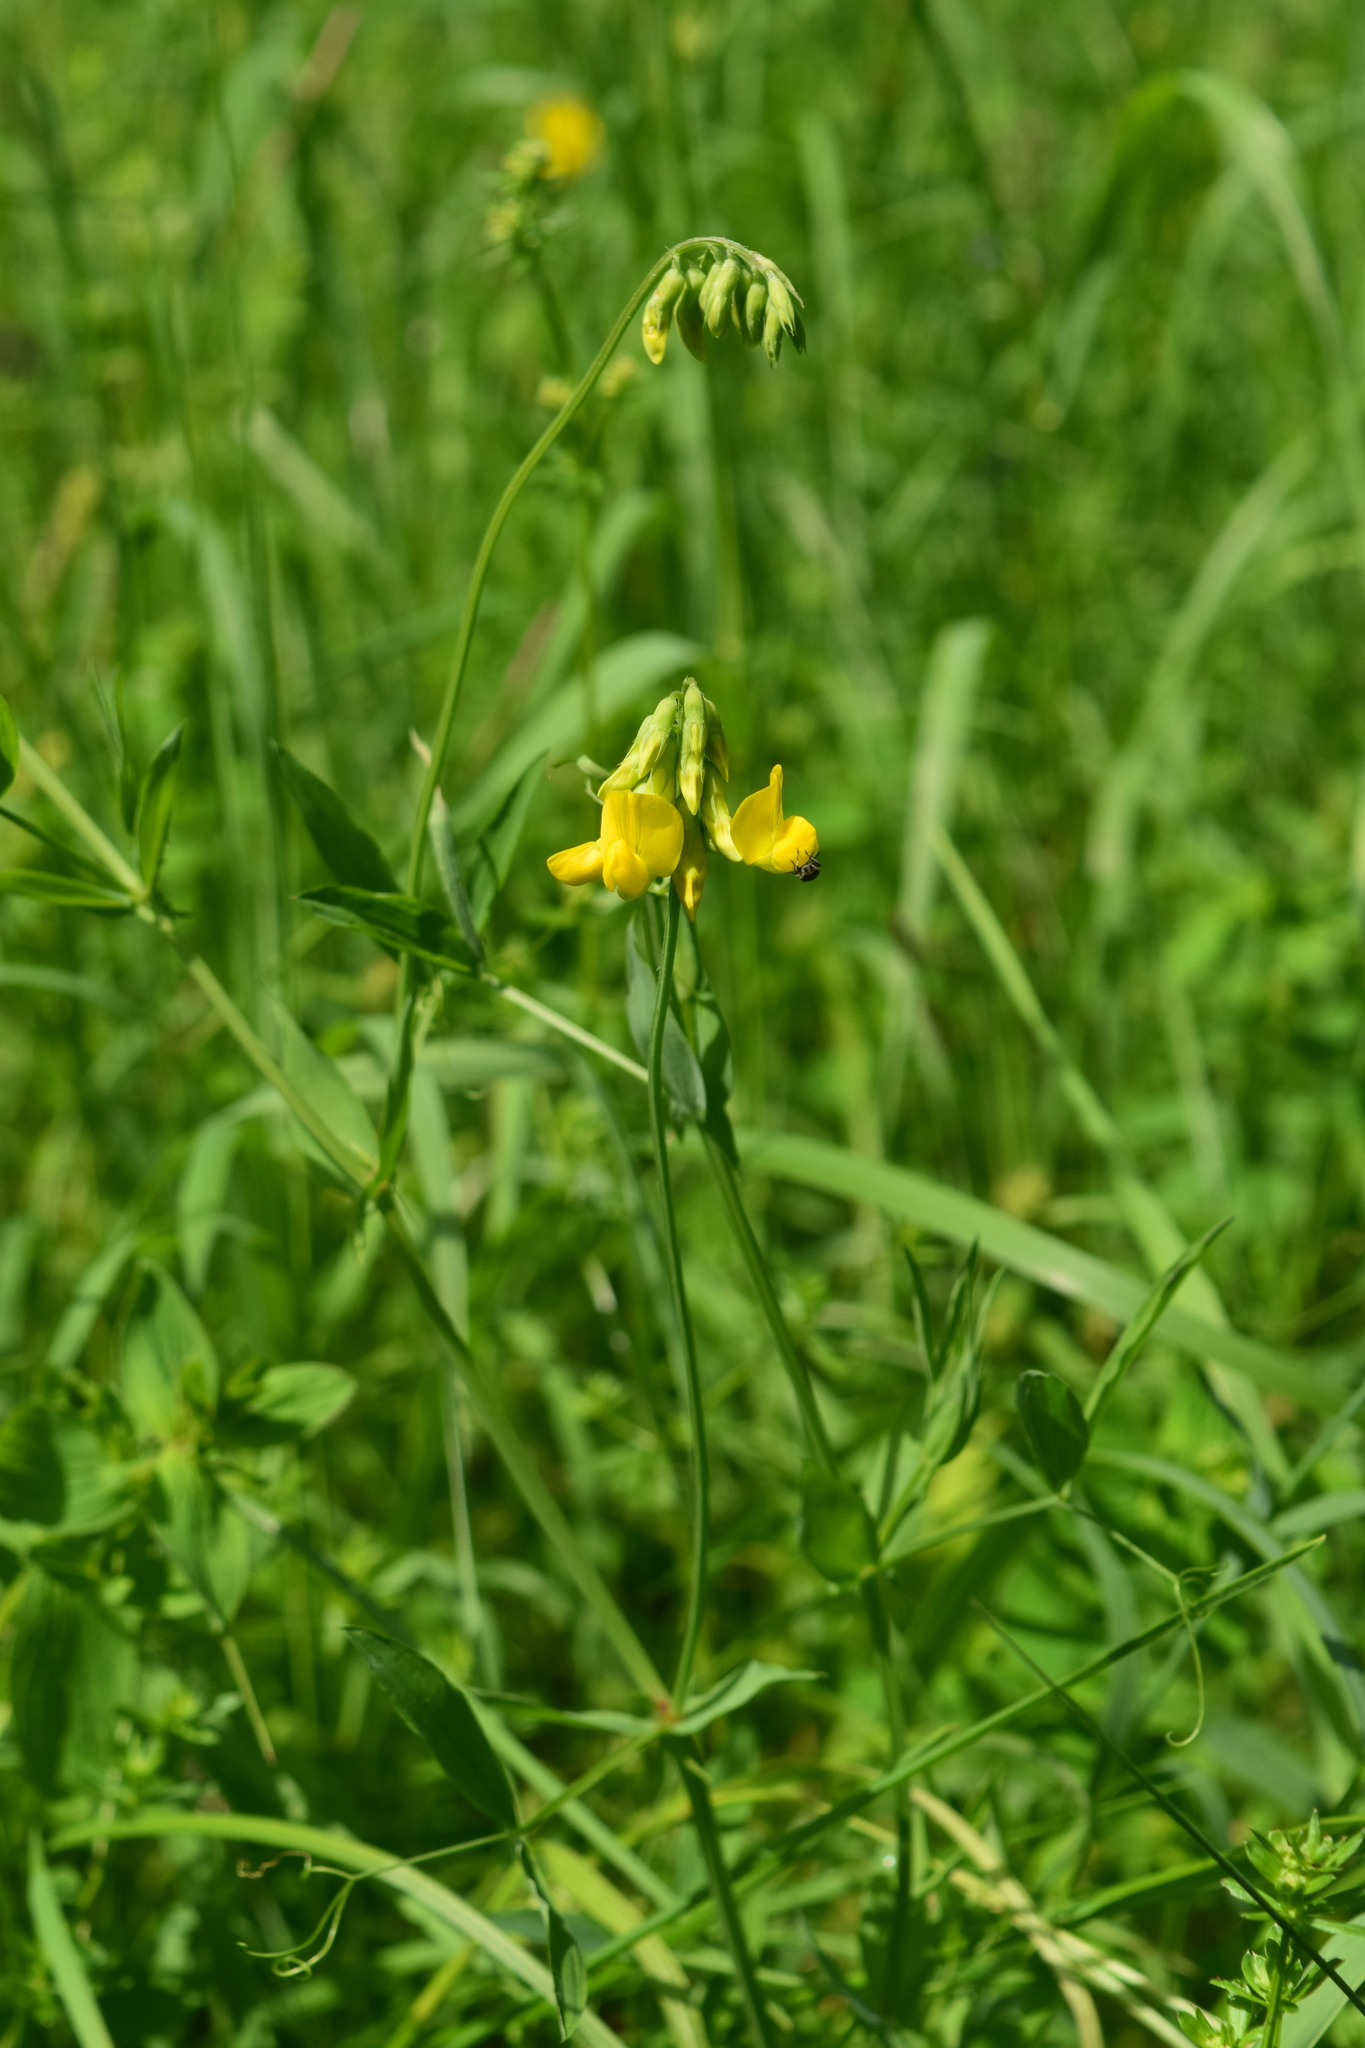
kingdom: Plantae
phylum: Tracheophyta
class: Magnoliopsida
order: Fabales
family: Fabaceae
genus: Lathyrus
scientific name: Lathyrus pratensis
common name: Meadow vetchling
